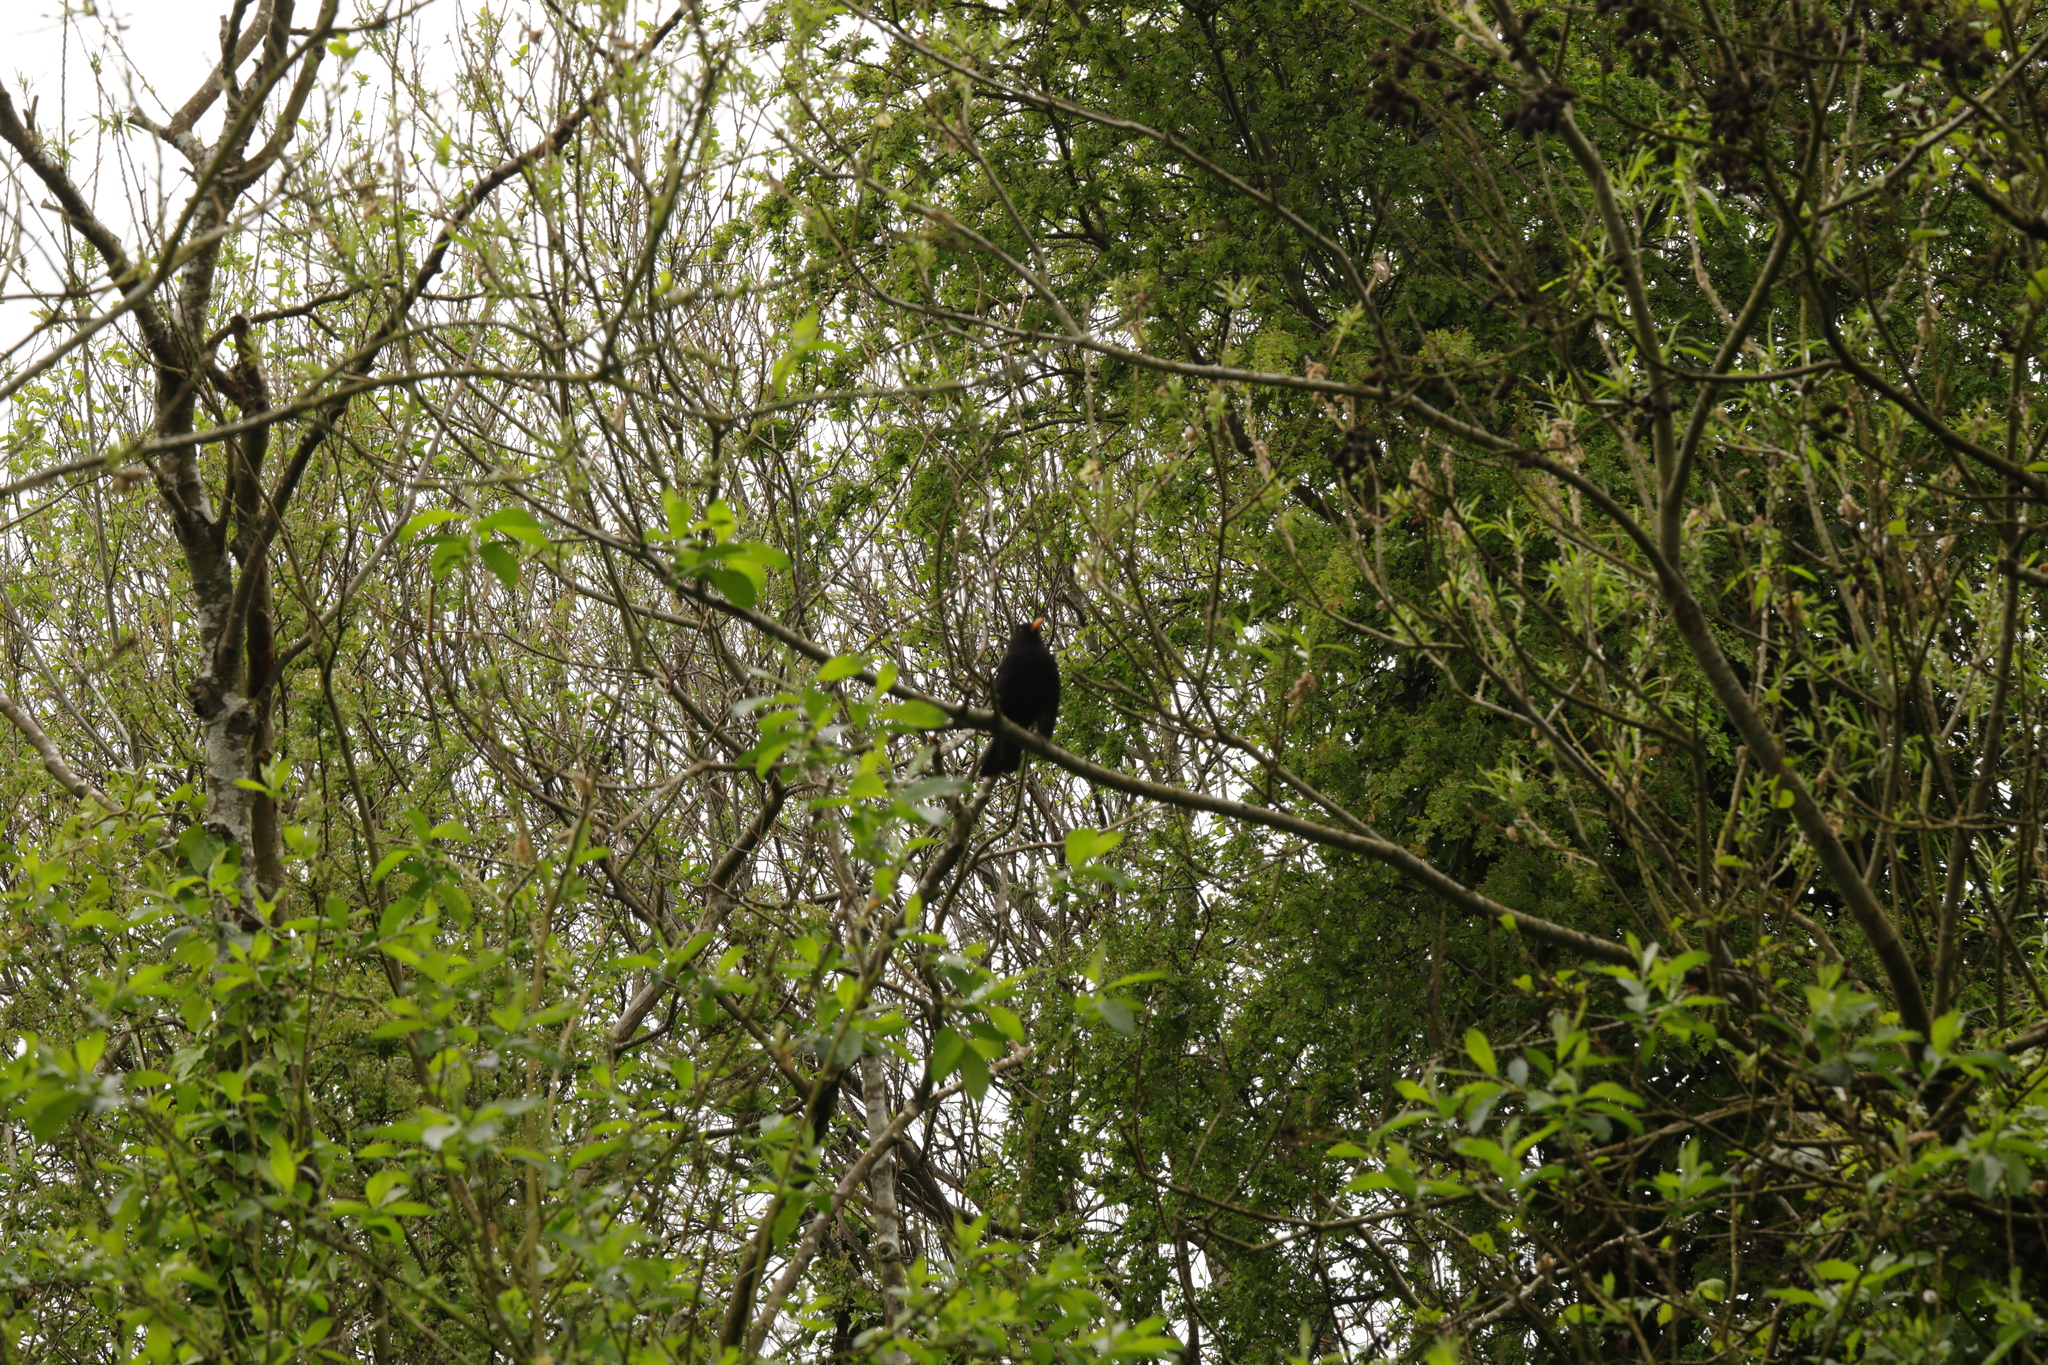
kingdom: Animalia
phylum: Chordata
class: Aves
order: Passeriformes
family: Turdidae
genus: Turdus
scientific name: Turdus merula
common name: Common blackbird
